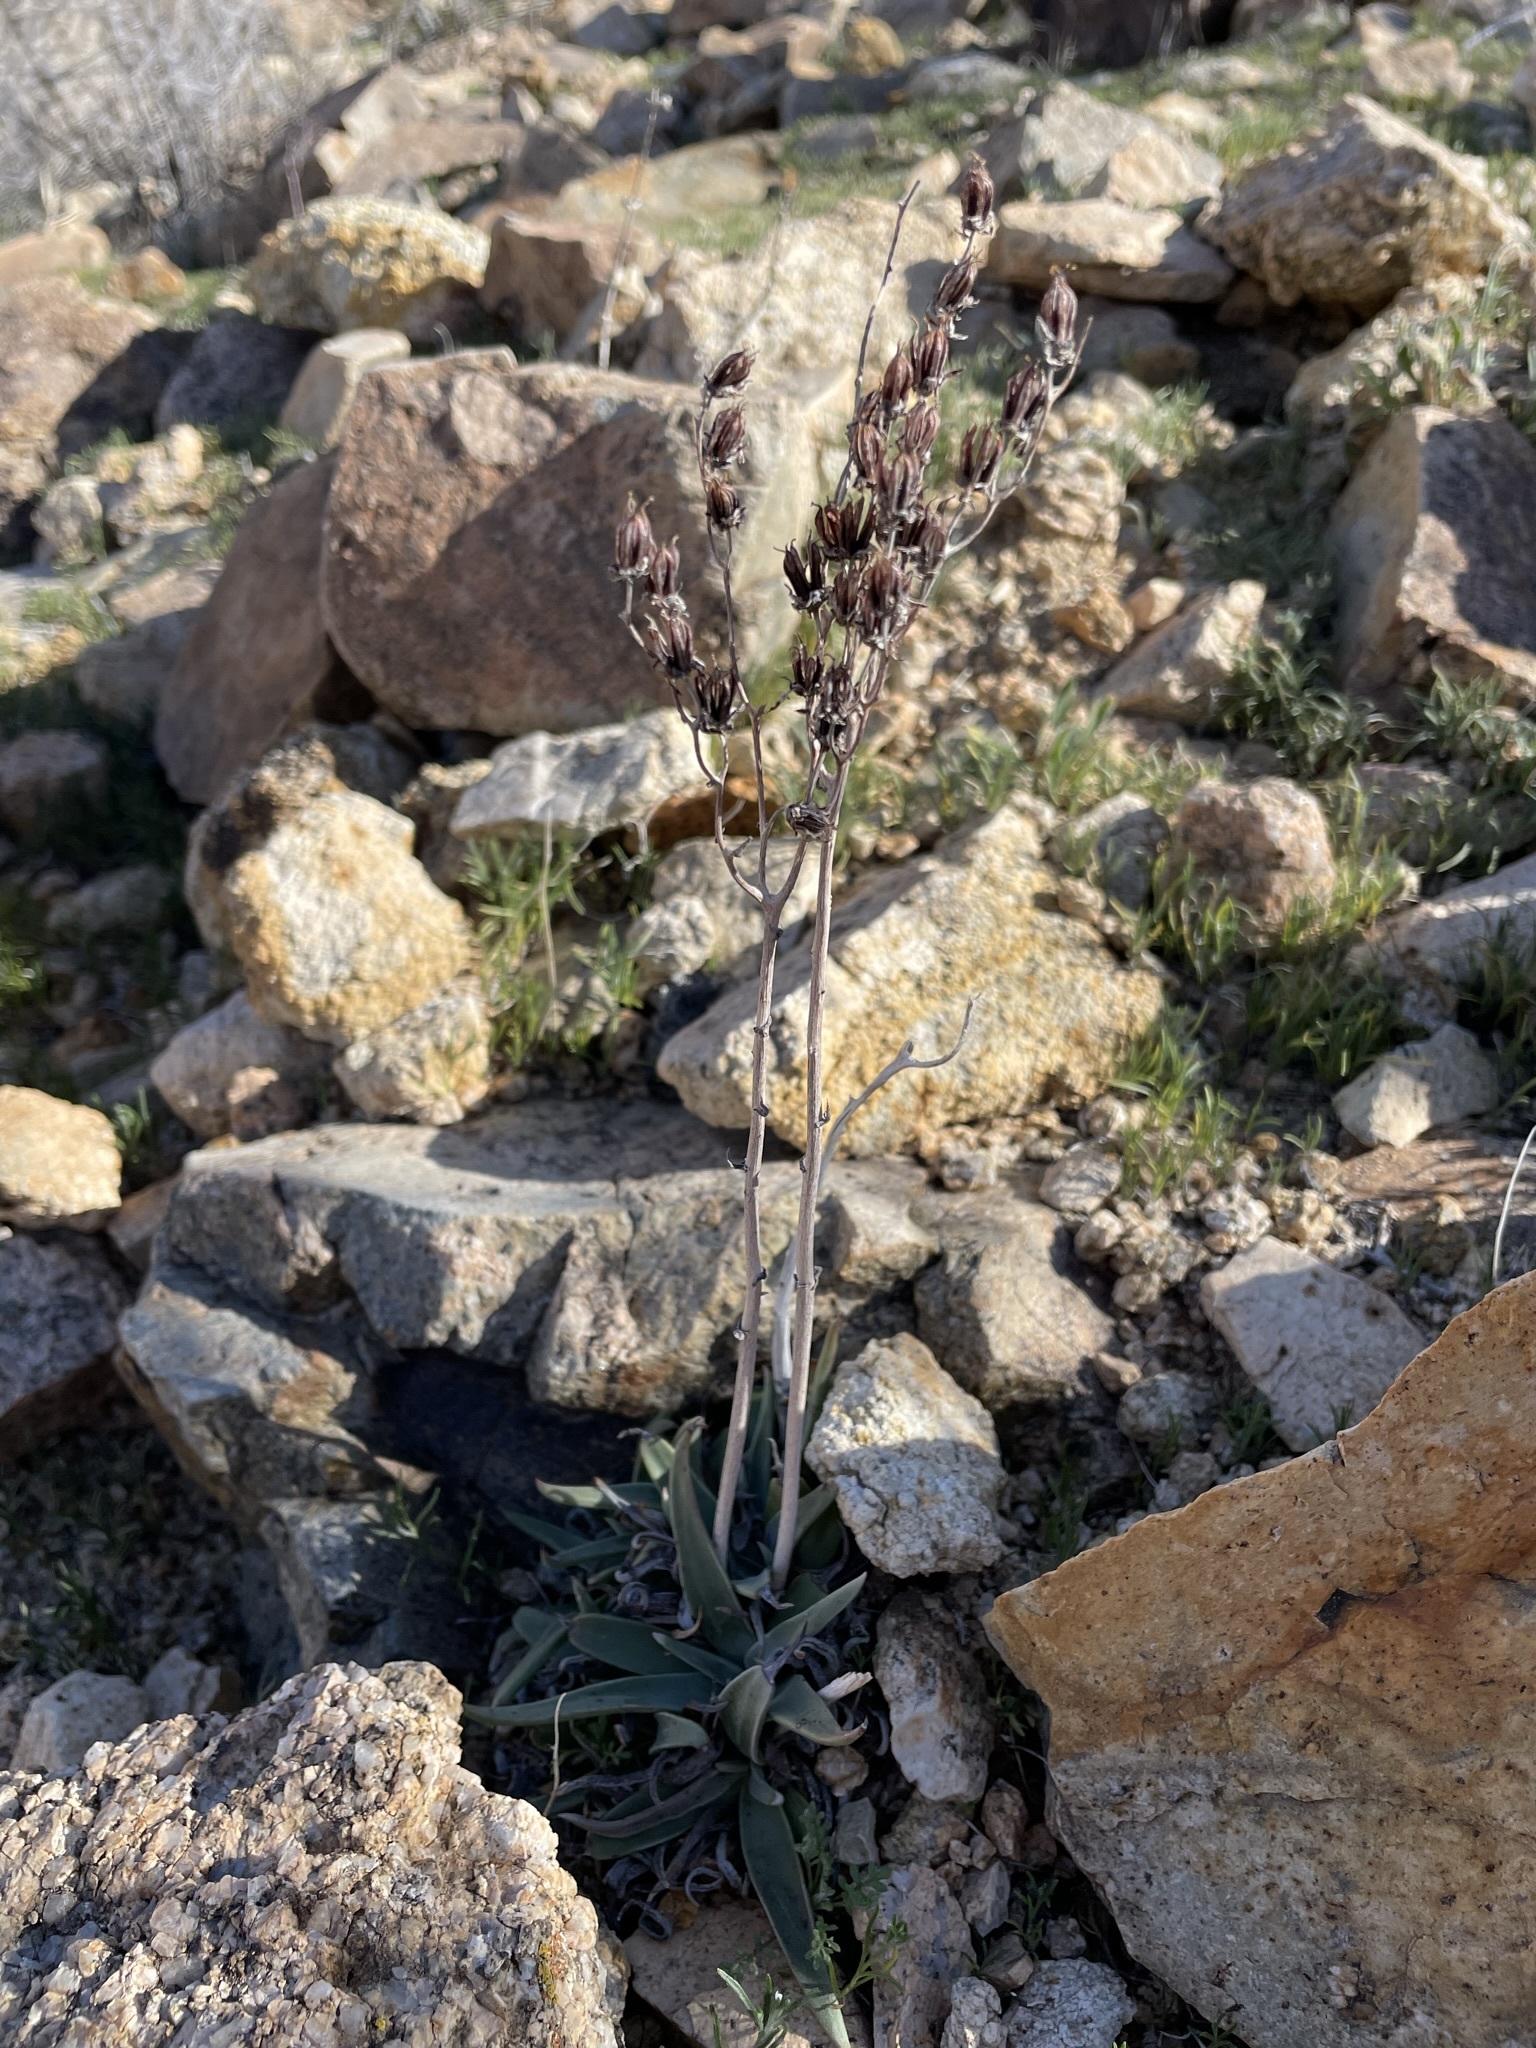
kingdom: Plantae
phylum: Tracheophyta
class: Magnoliopsida
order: Saxifragales
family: Crassulaceae
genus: Dudleya
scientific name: Dudleya saxosa
